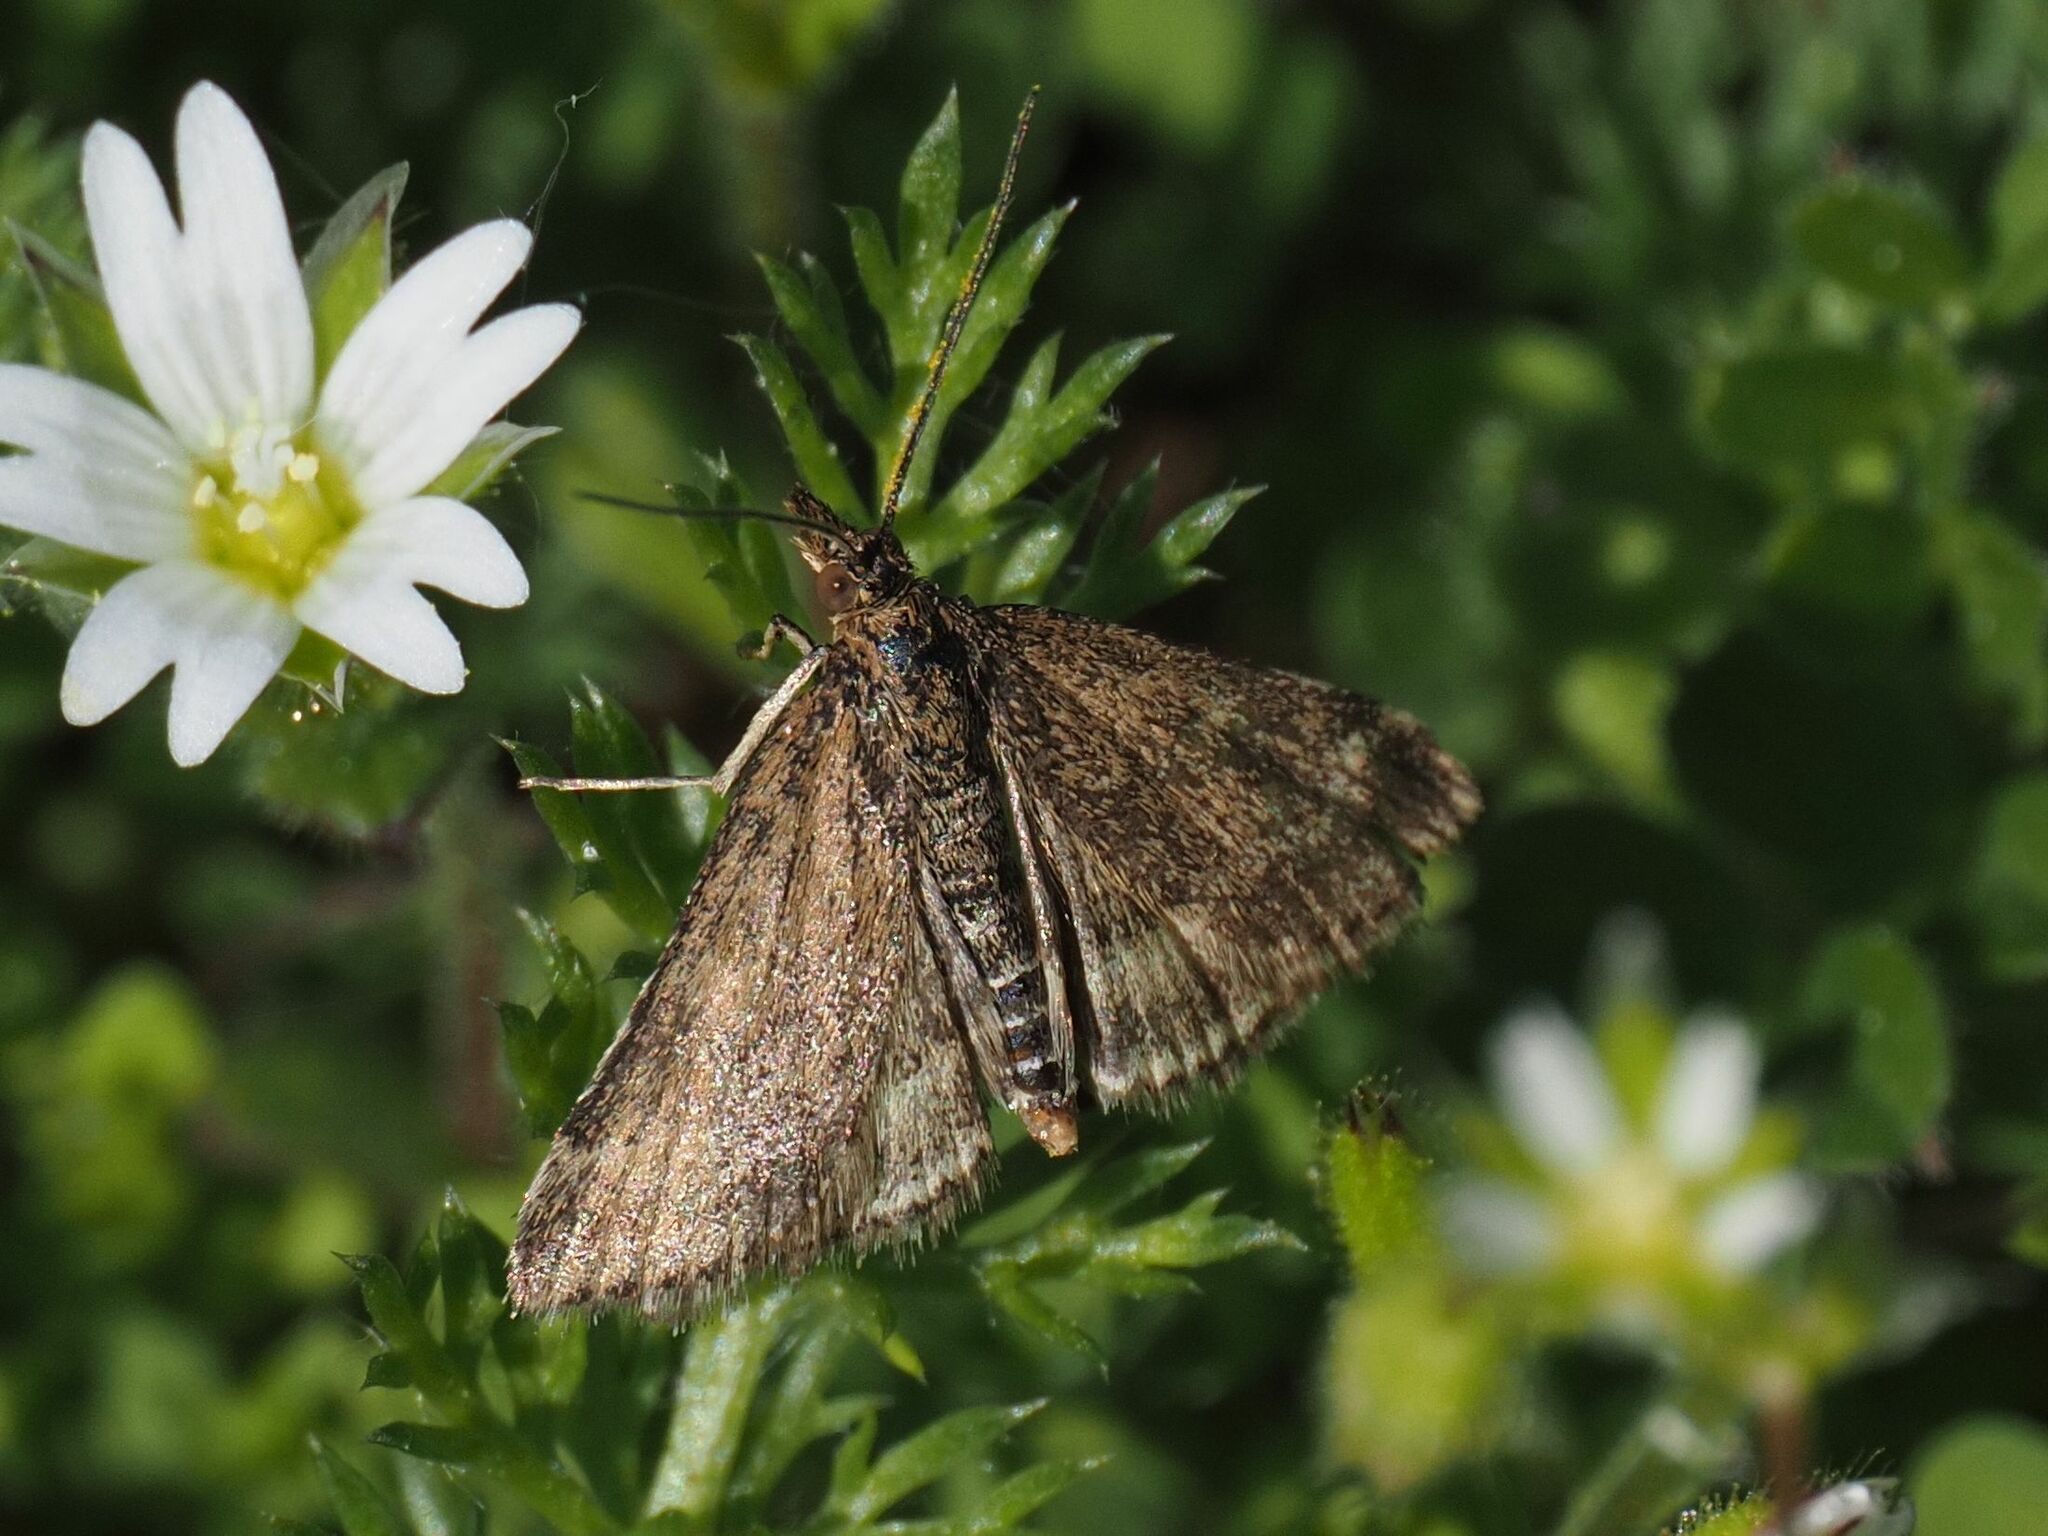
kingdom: Animalia
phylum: Arthropoda
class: Insecta
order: Lepidoptera
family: Crambidae
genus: Pyrausta
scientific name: Pyrausta despicata
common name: Straw-barred pearl
